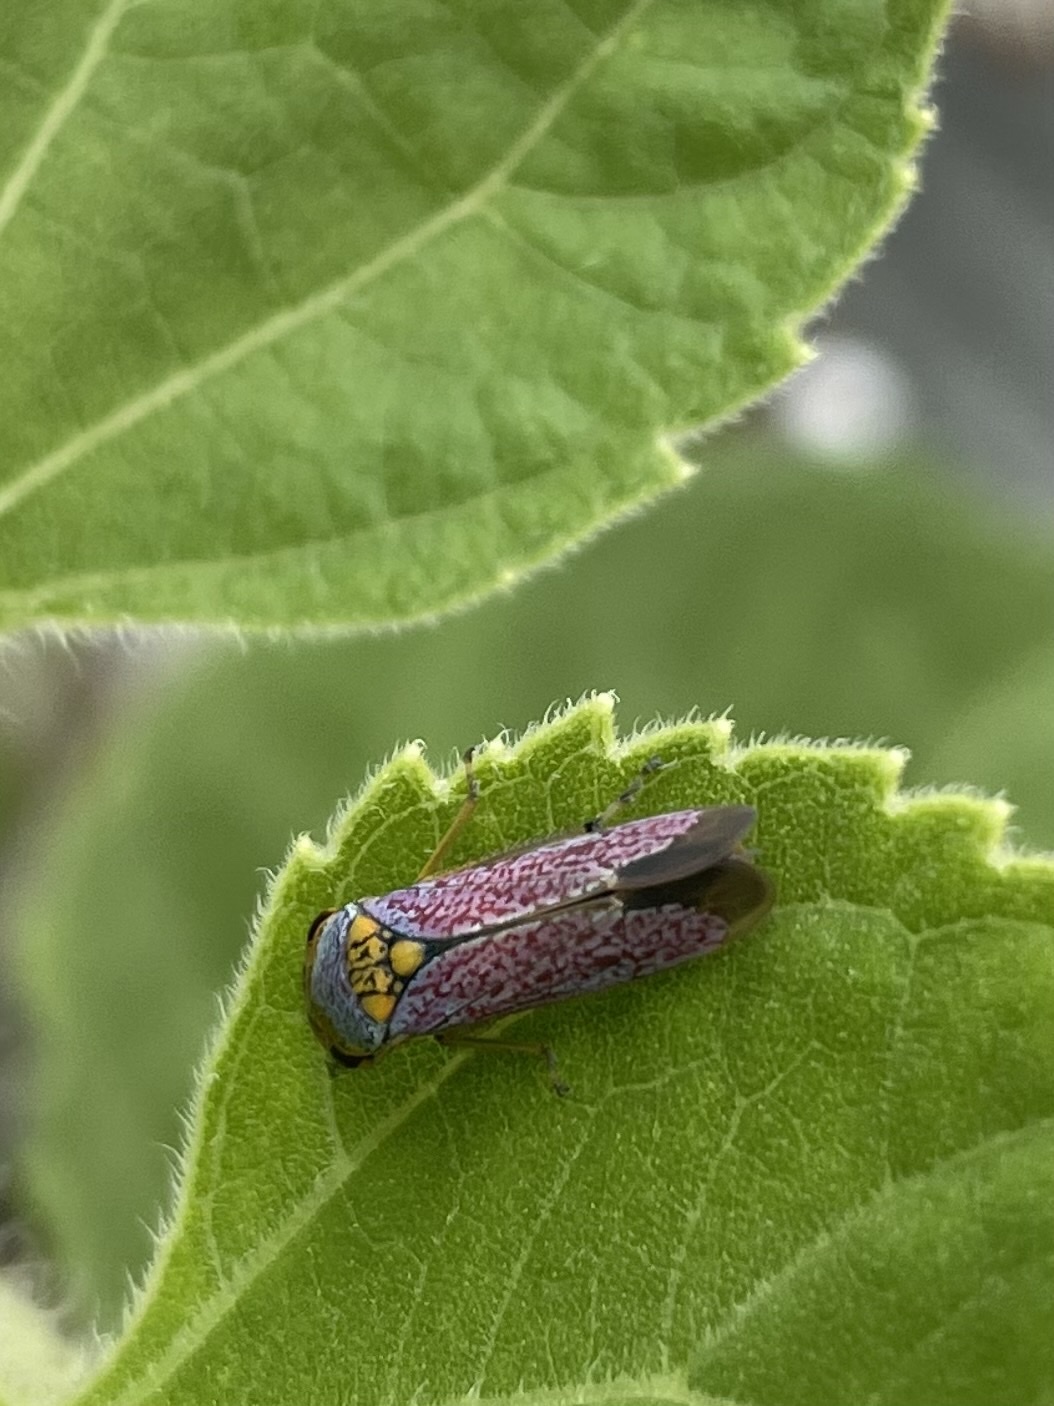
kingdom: Animalia
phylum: Arthropoda
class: Insecta
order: Hemiptera
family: Cicadellidae
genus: Oncometopia
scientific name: Oncometopia orbona
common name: Broad-headed sharpshooter
